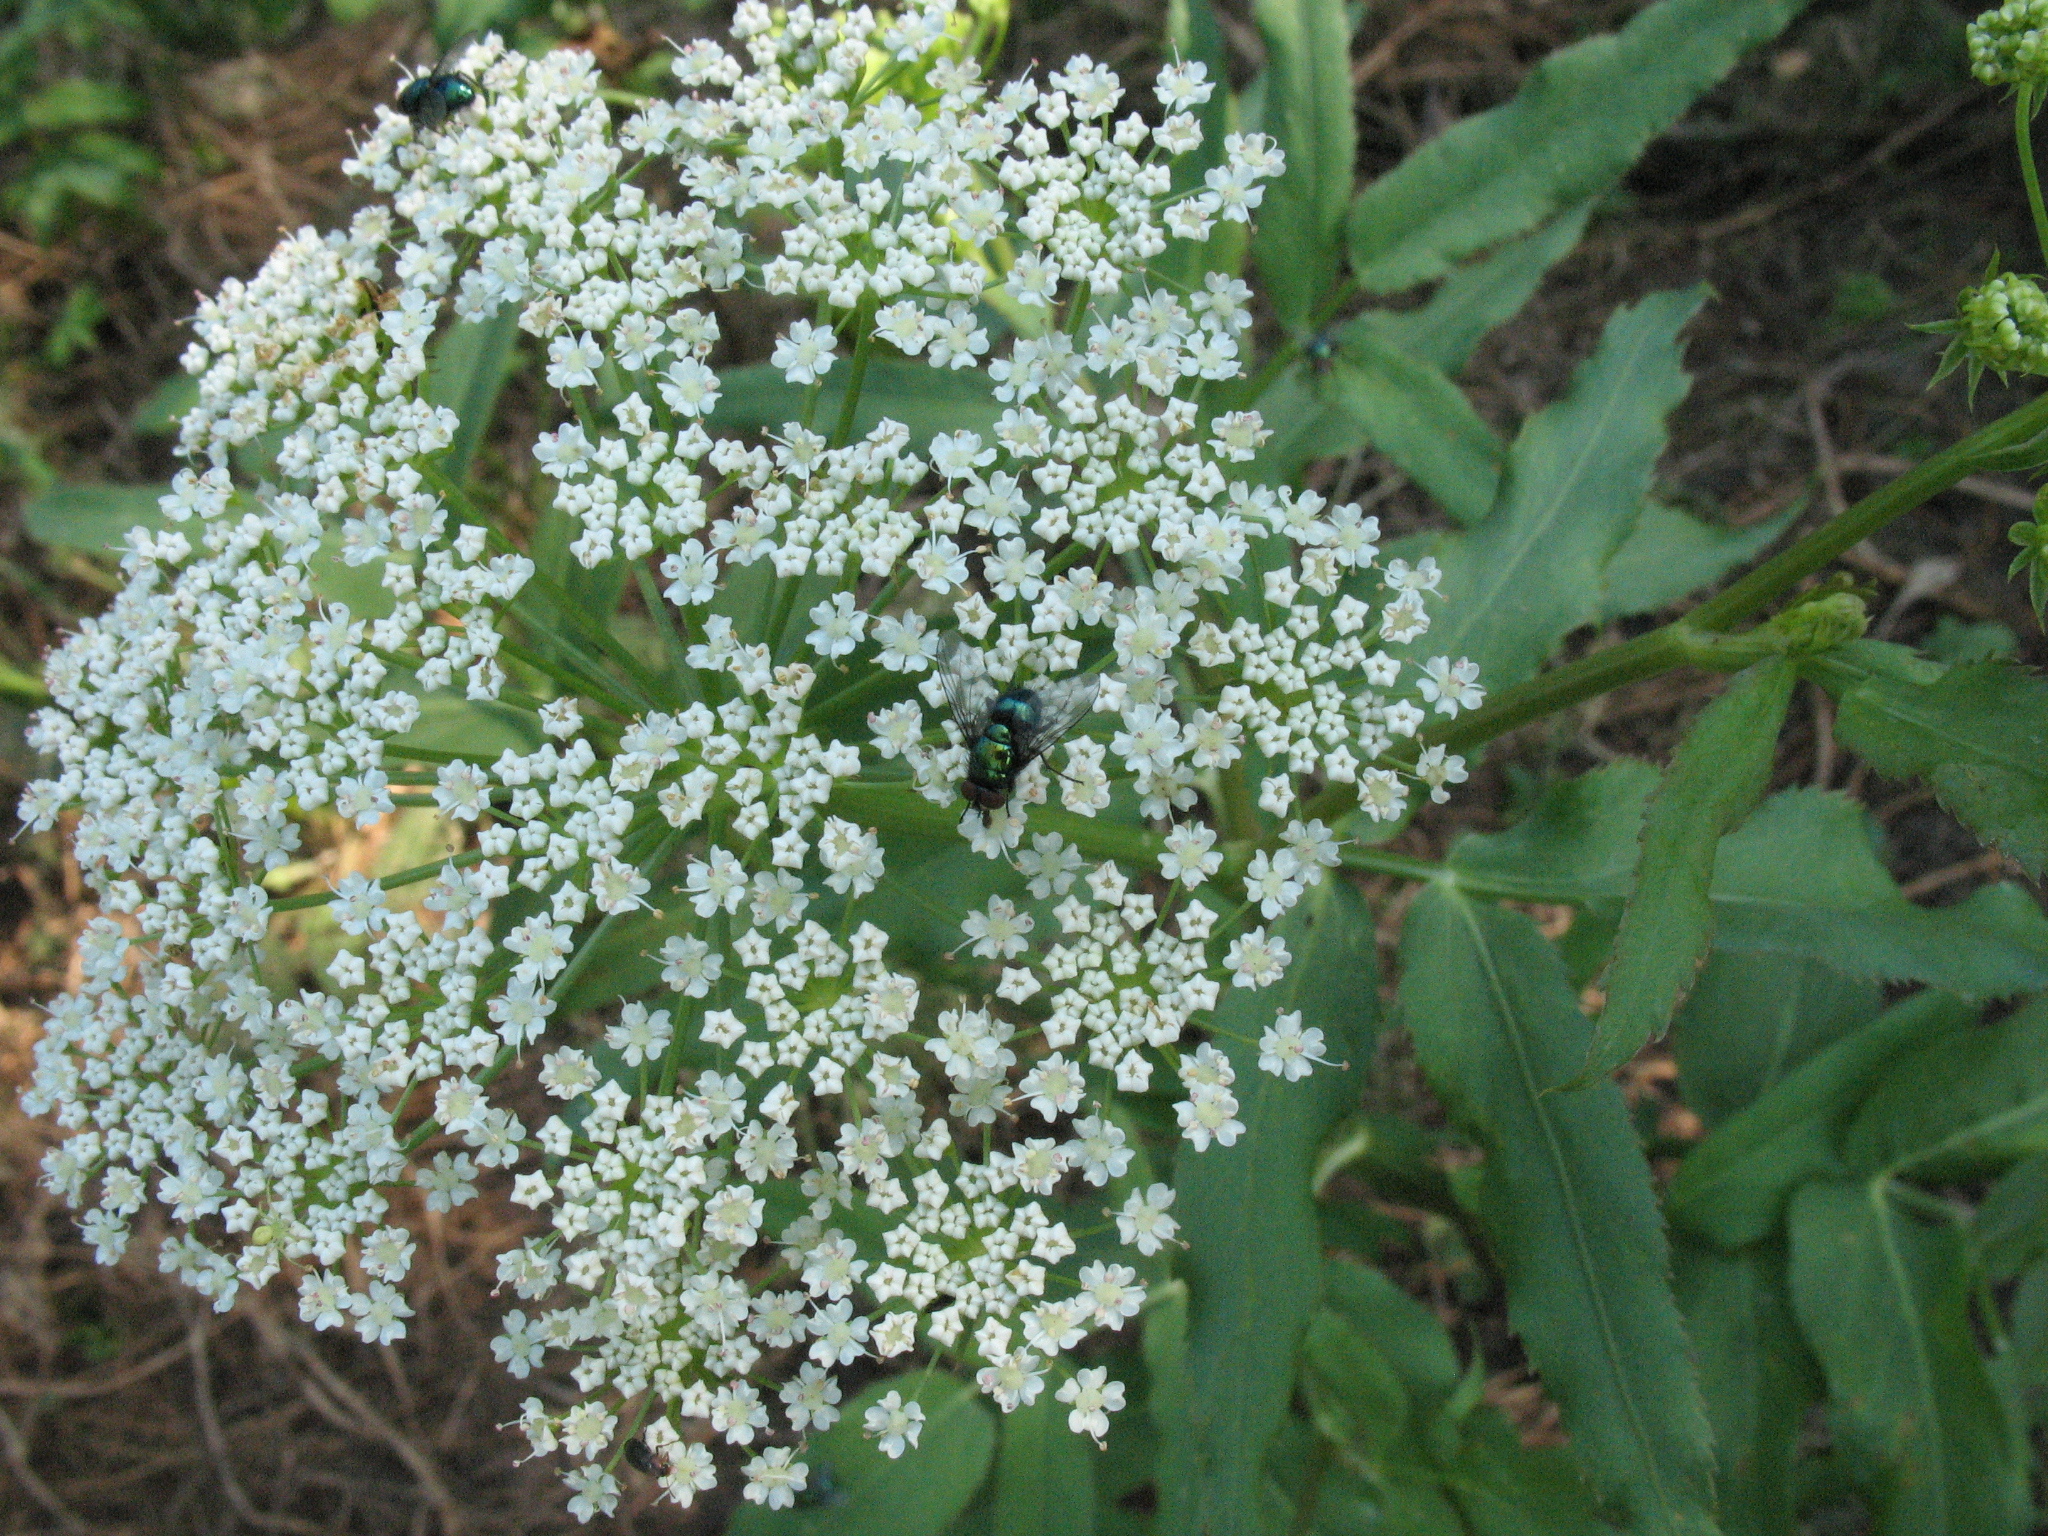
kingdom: Plantae
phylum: Tracheophyta
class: Magnoliopsida
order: Apiales
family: Apiaceae
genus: Sium
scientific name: Sium latifolium
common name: Greater water-parsnip
